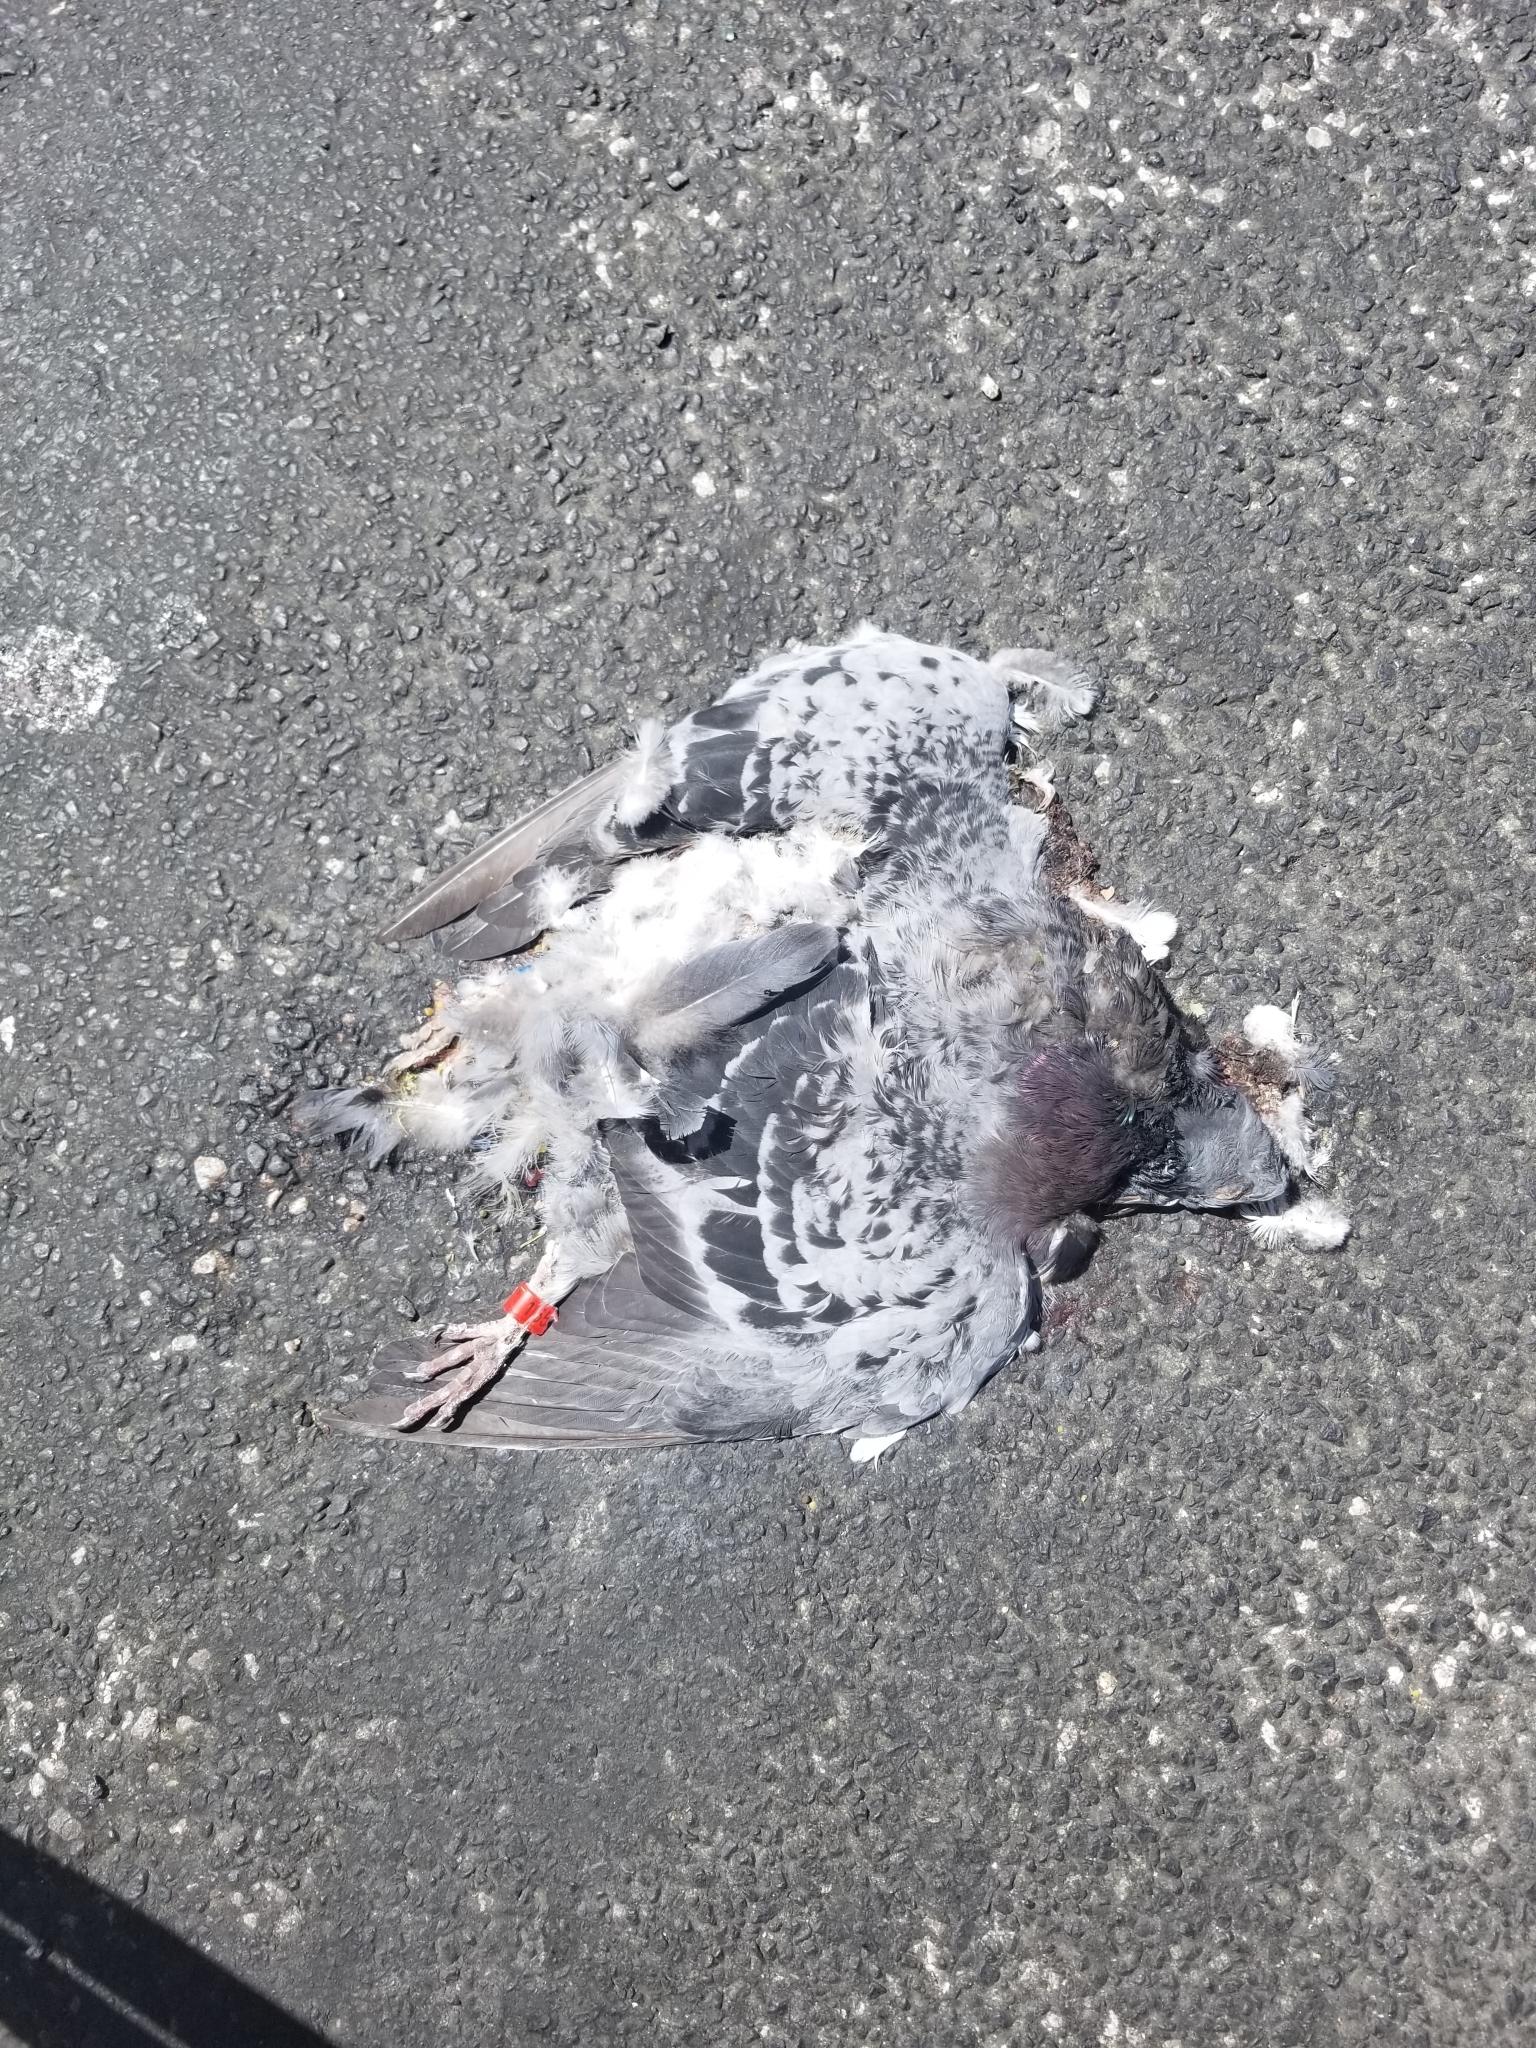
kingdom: Animalia
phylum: Chordata
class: Aves
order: Columbiformes
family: Columbidae
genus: Columba
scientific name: Columba livia
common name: Rock pigeon
